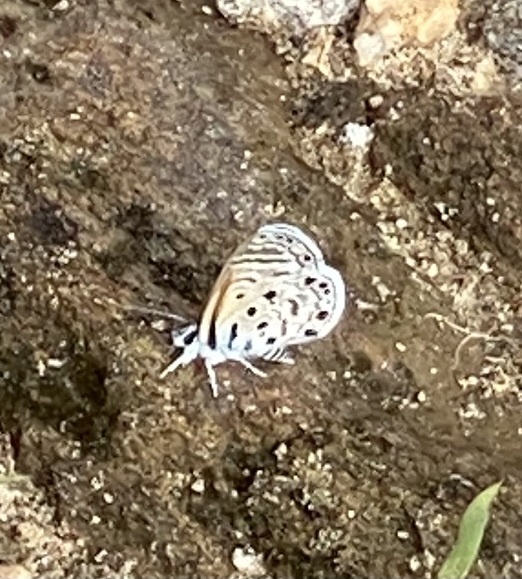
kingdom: Animalia
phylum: Arthropoda
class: Insecta
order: Lepidoptera
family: Lycaenidae
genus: Azanus
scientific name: Azanus jesous
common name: African babul blue
